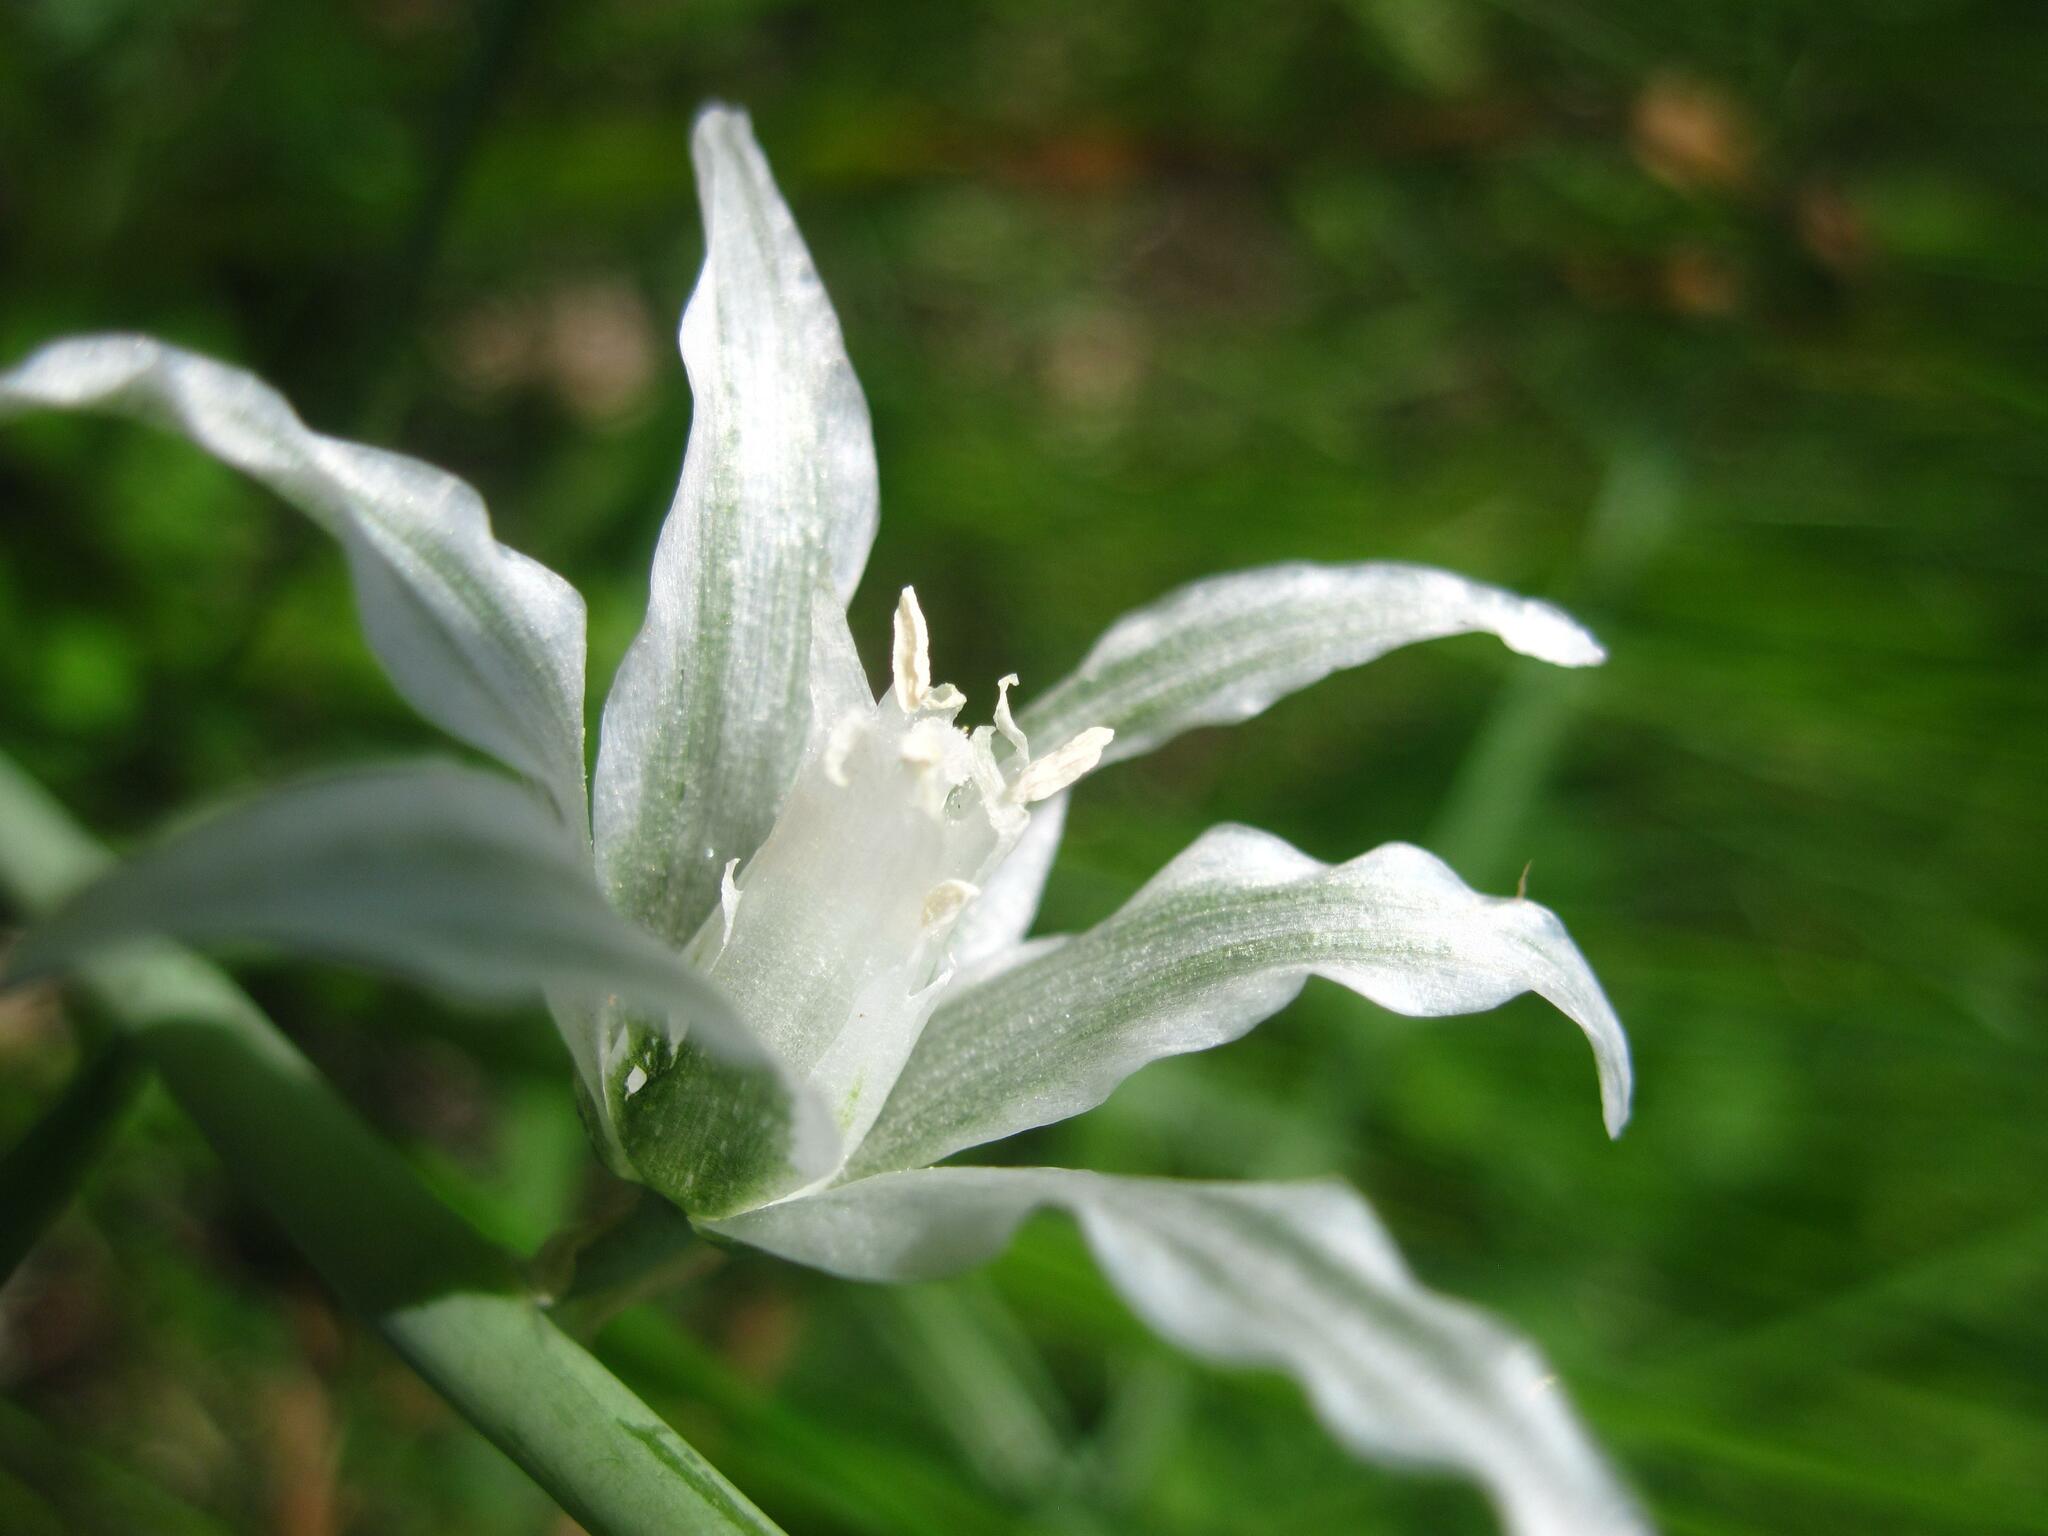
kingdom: Plantae
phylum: Tracheophyta
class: Liliopsida
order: Asparagales
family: Asparagaceae
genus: Ornithogalum
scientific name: Ornithogalum boucheanum
